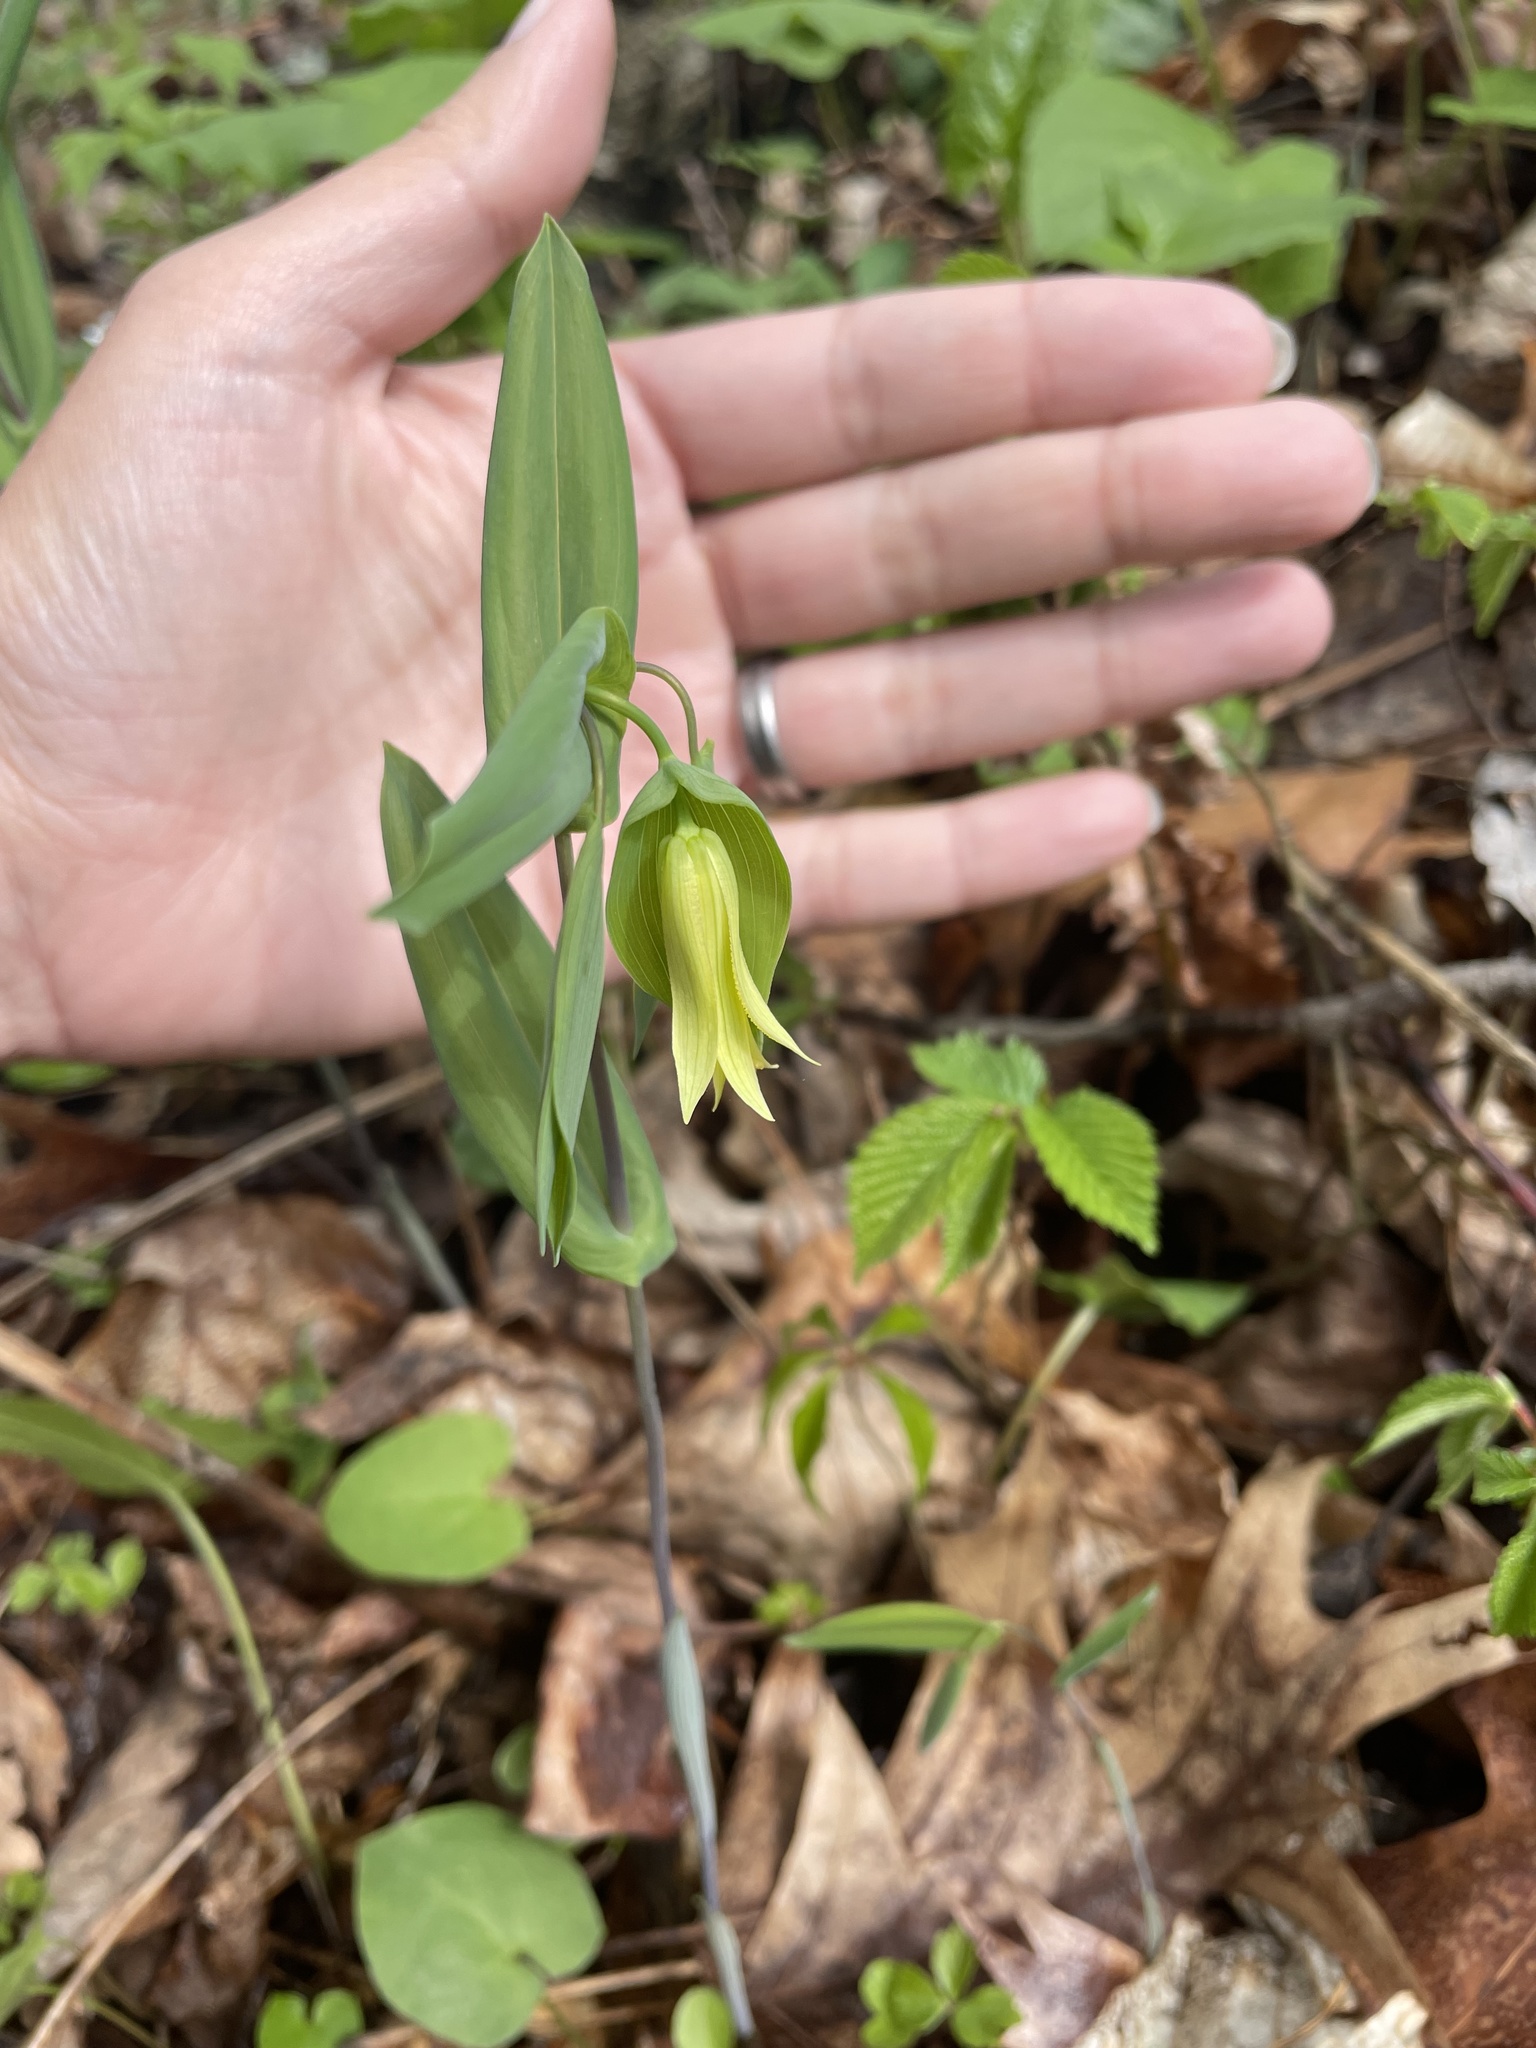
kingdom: Plantae
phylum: Tracheophyta
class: Liliopsida
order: Liliales
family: Colchicaceae
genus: Uvularia
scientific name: Uvularia perfoliata
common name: Perfoliate bellwort
